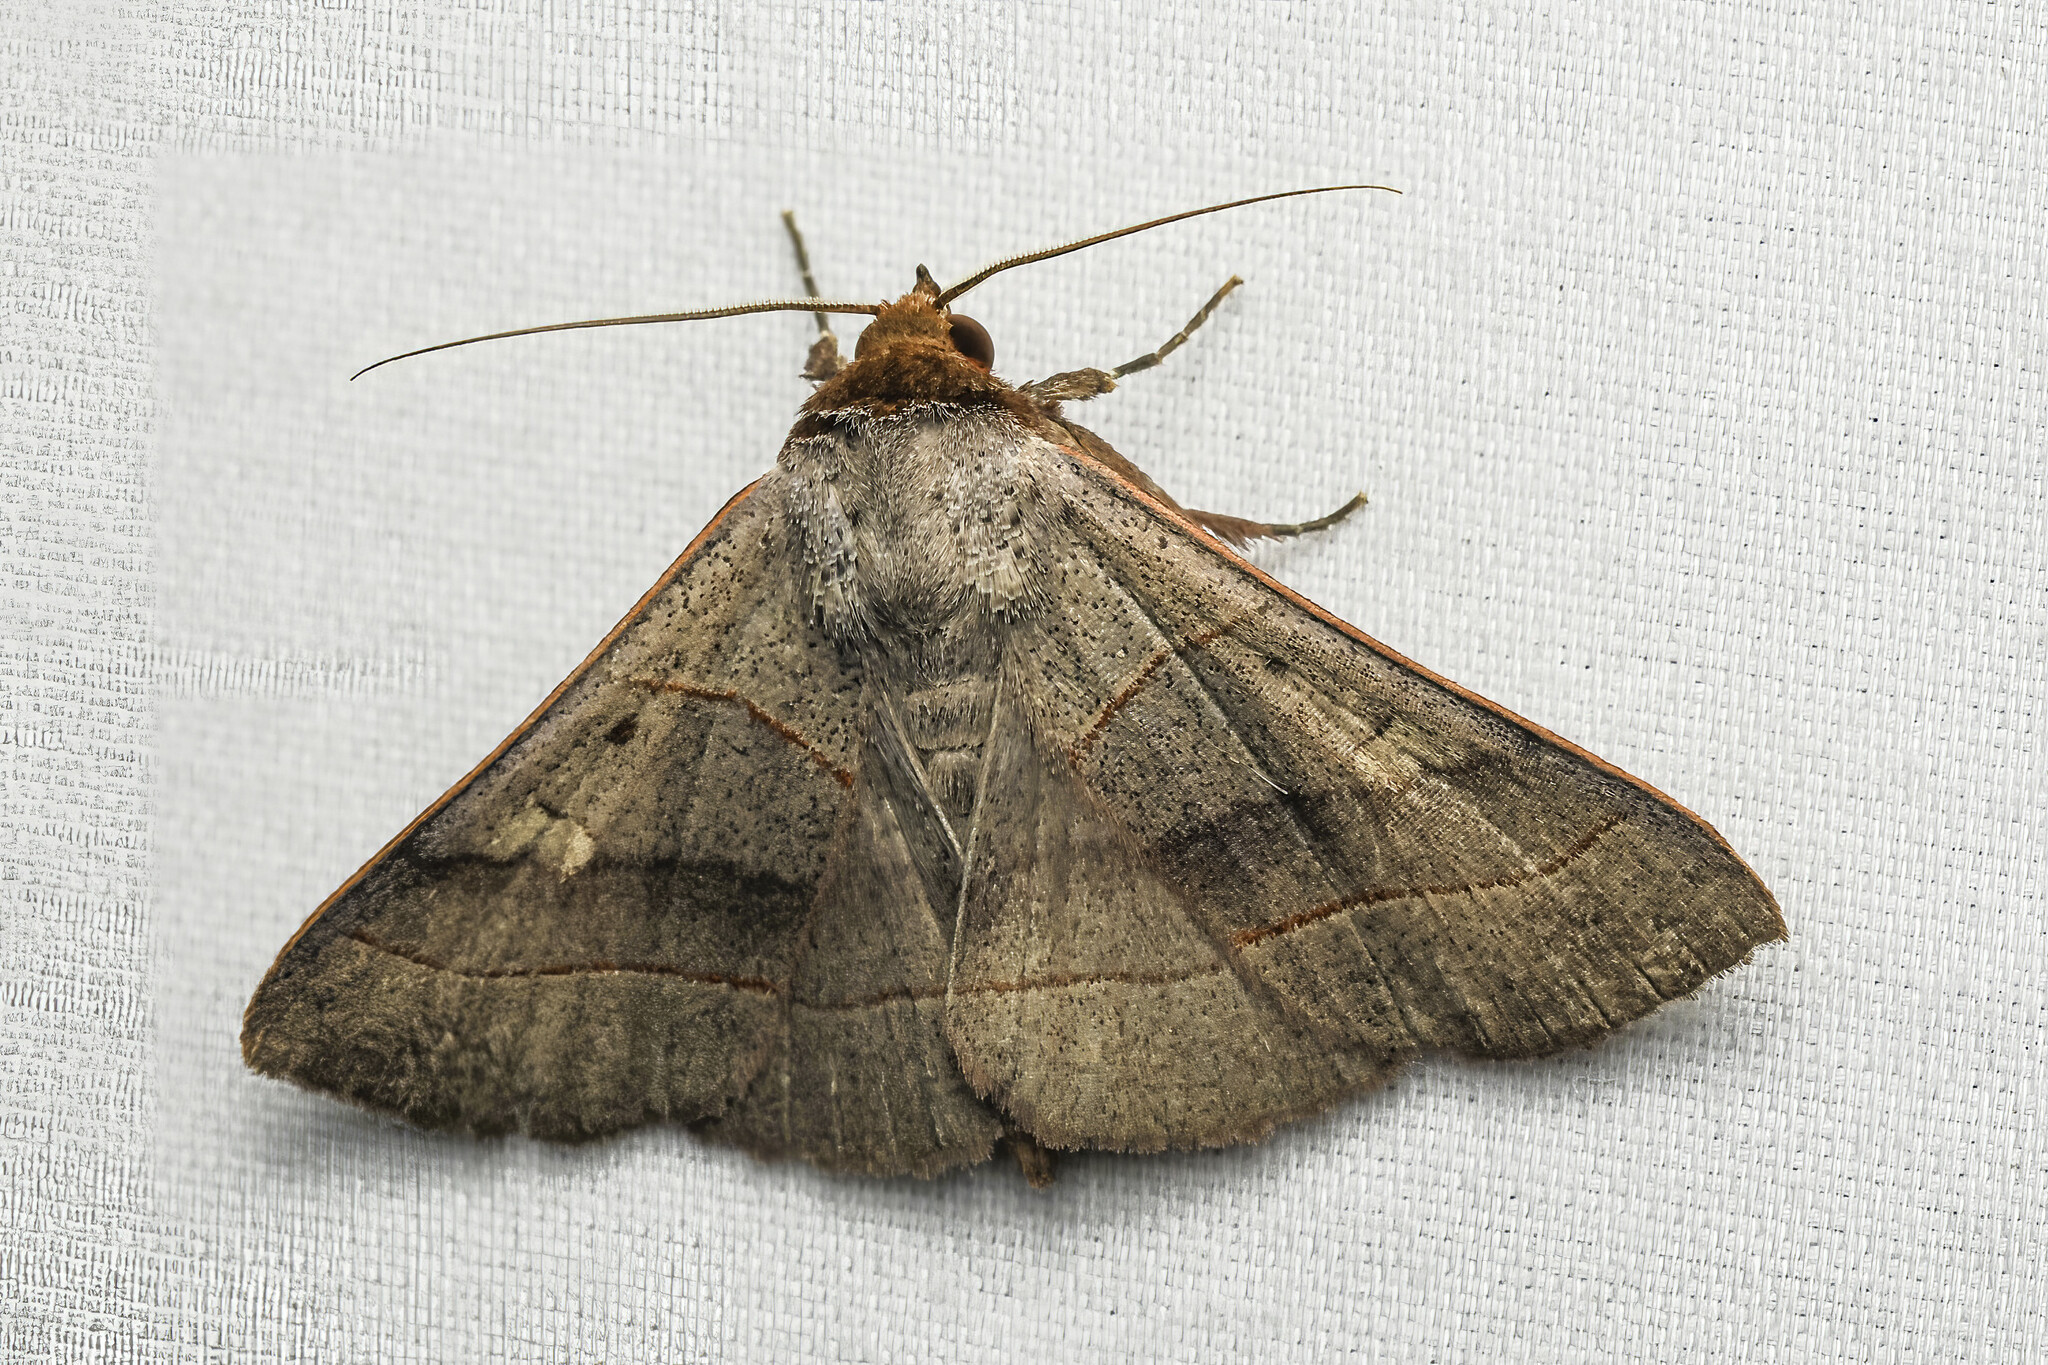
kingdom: Animalia
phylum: Arthropoda
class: Insecta
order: Lepidoptera
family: Erebidae
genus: Panopoda
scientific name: Panopoda rufimargo
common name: Red-lined panopoda moth
